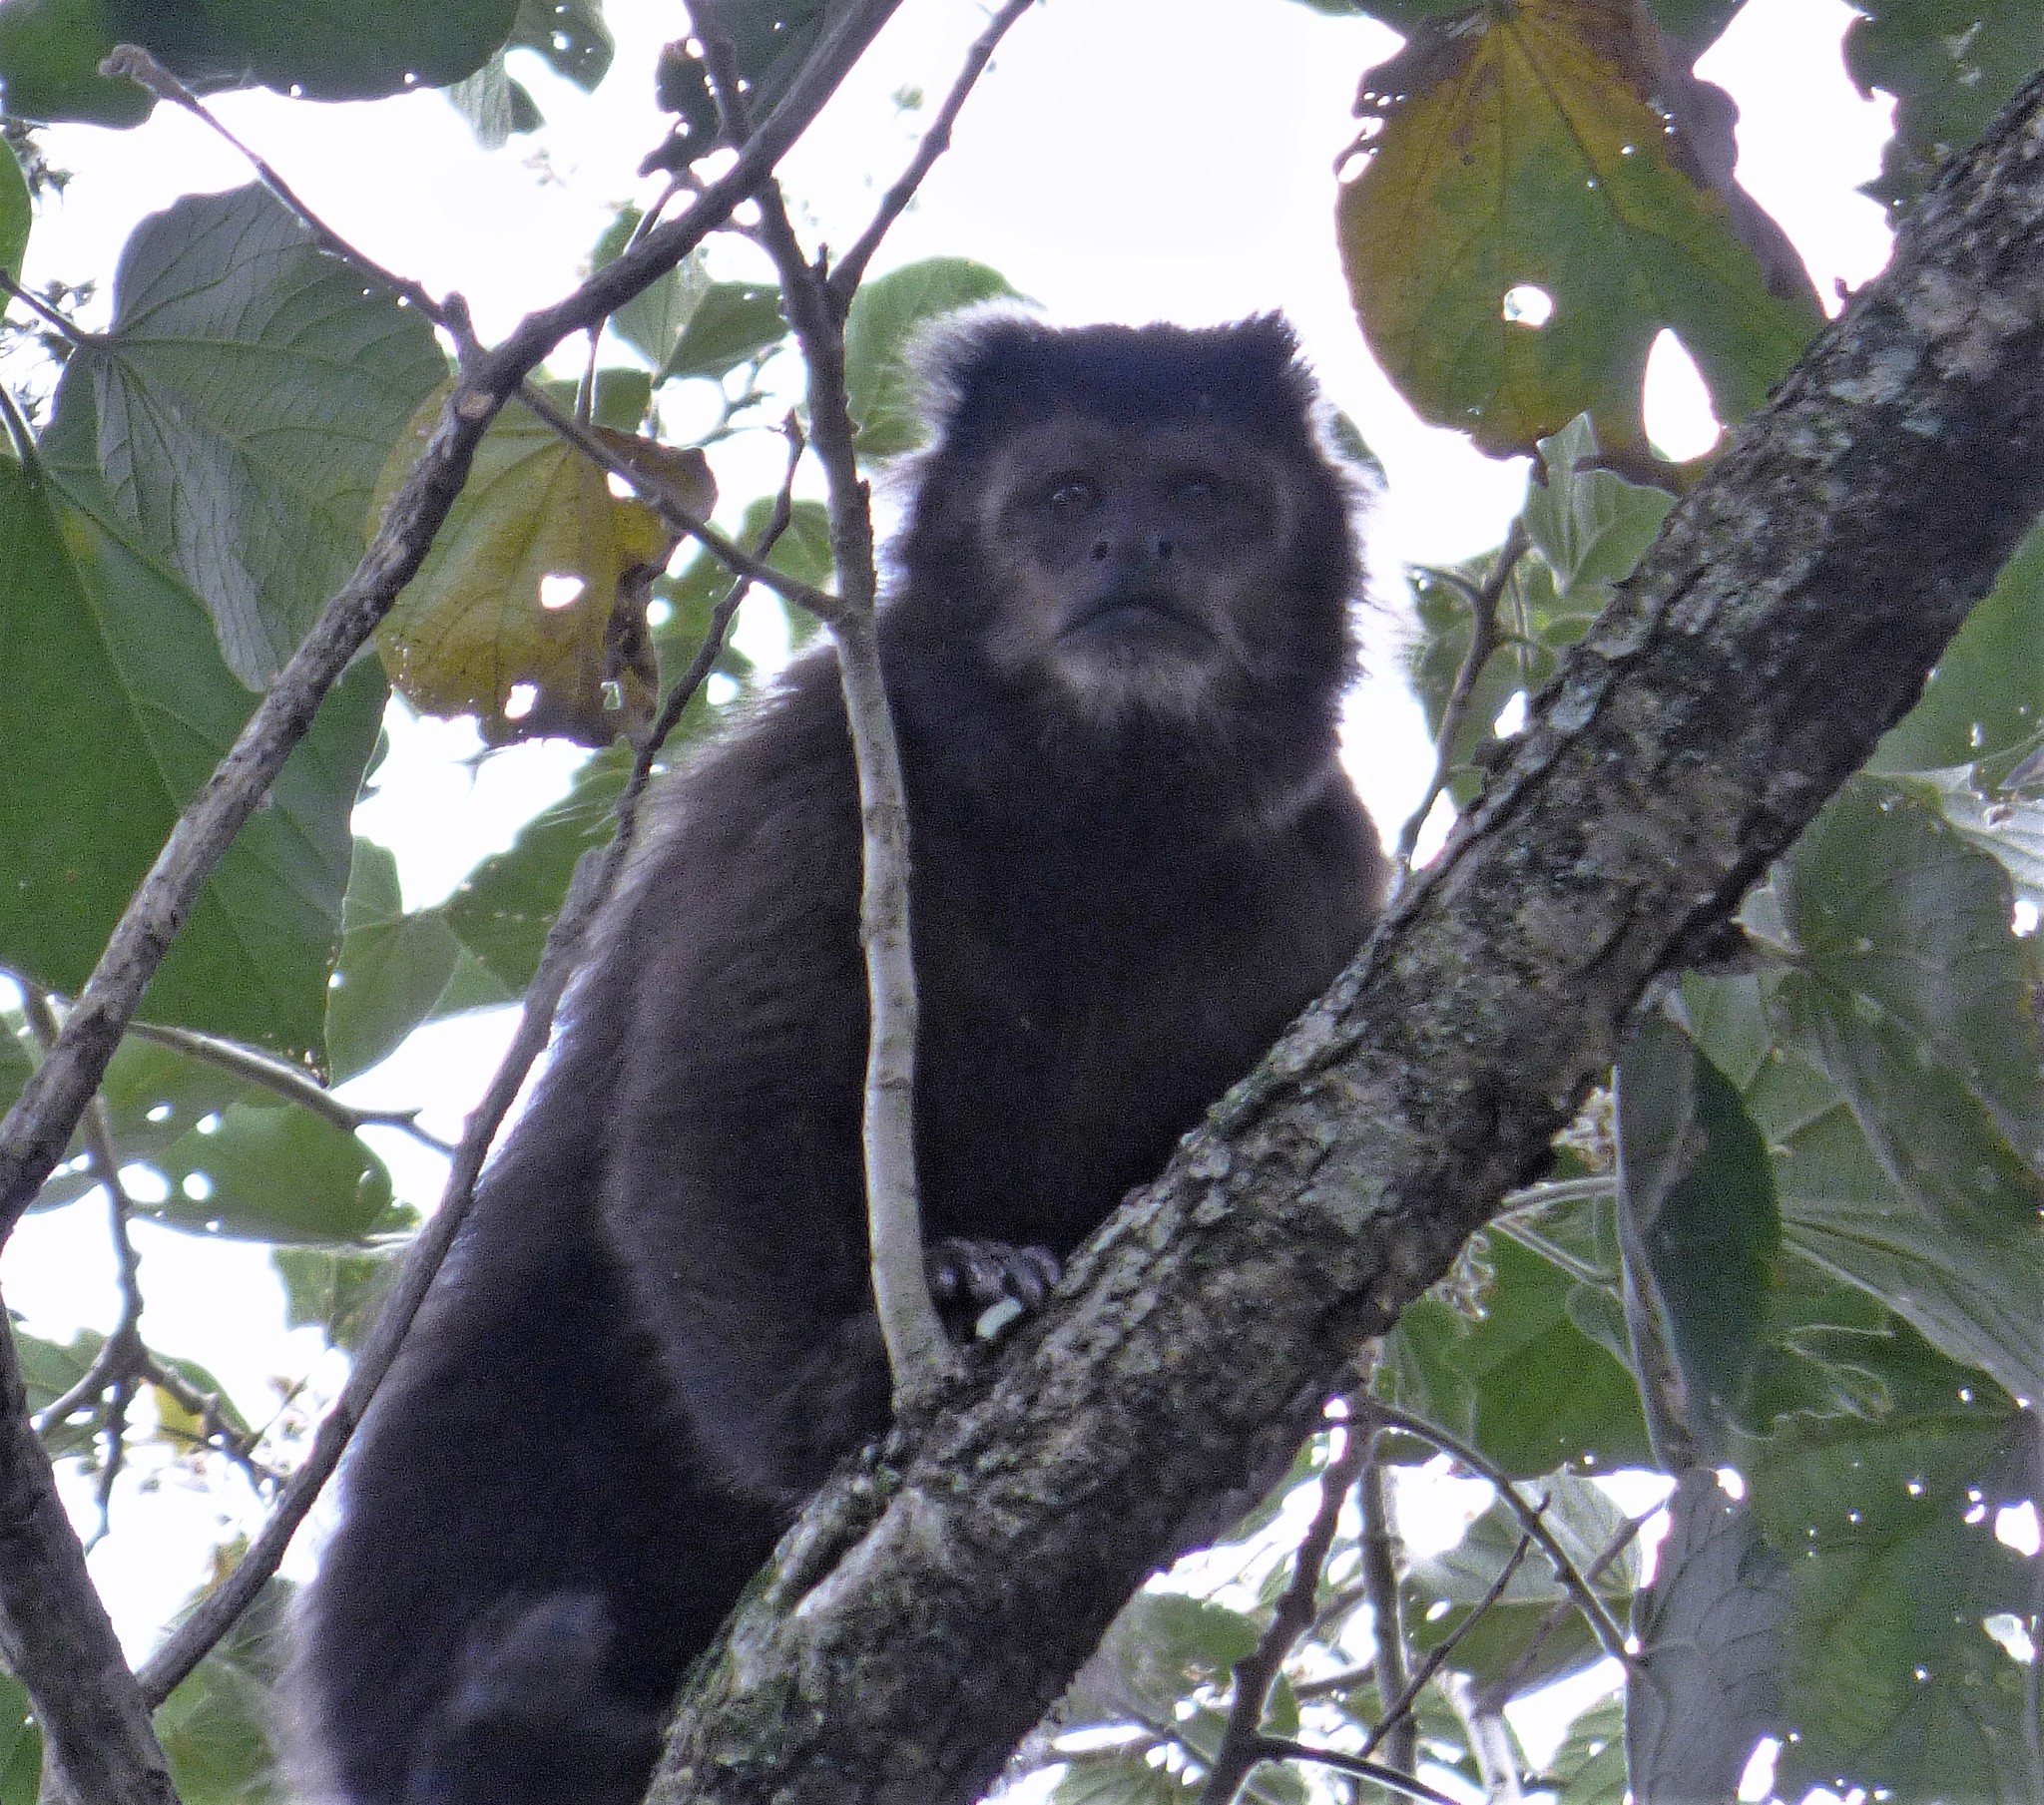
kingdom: Animalia
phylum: Chordata
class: Mammalia
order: Primates
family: Cebidae
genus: Sapajus
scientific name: Sapajus nigritus
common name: Black capuchin
